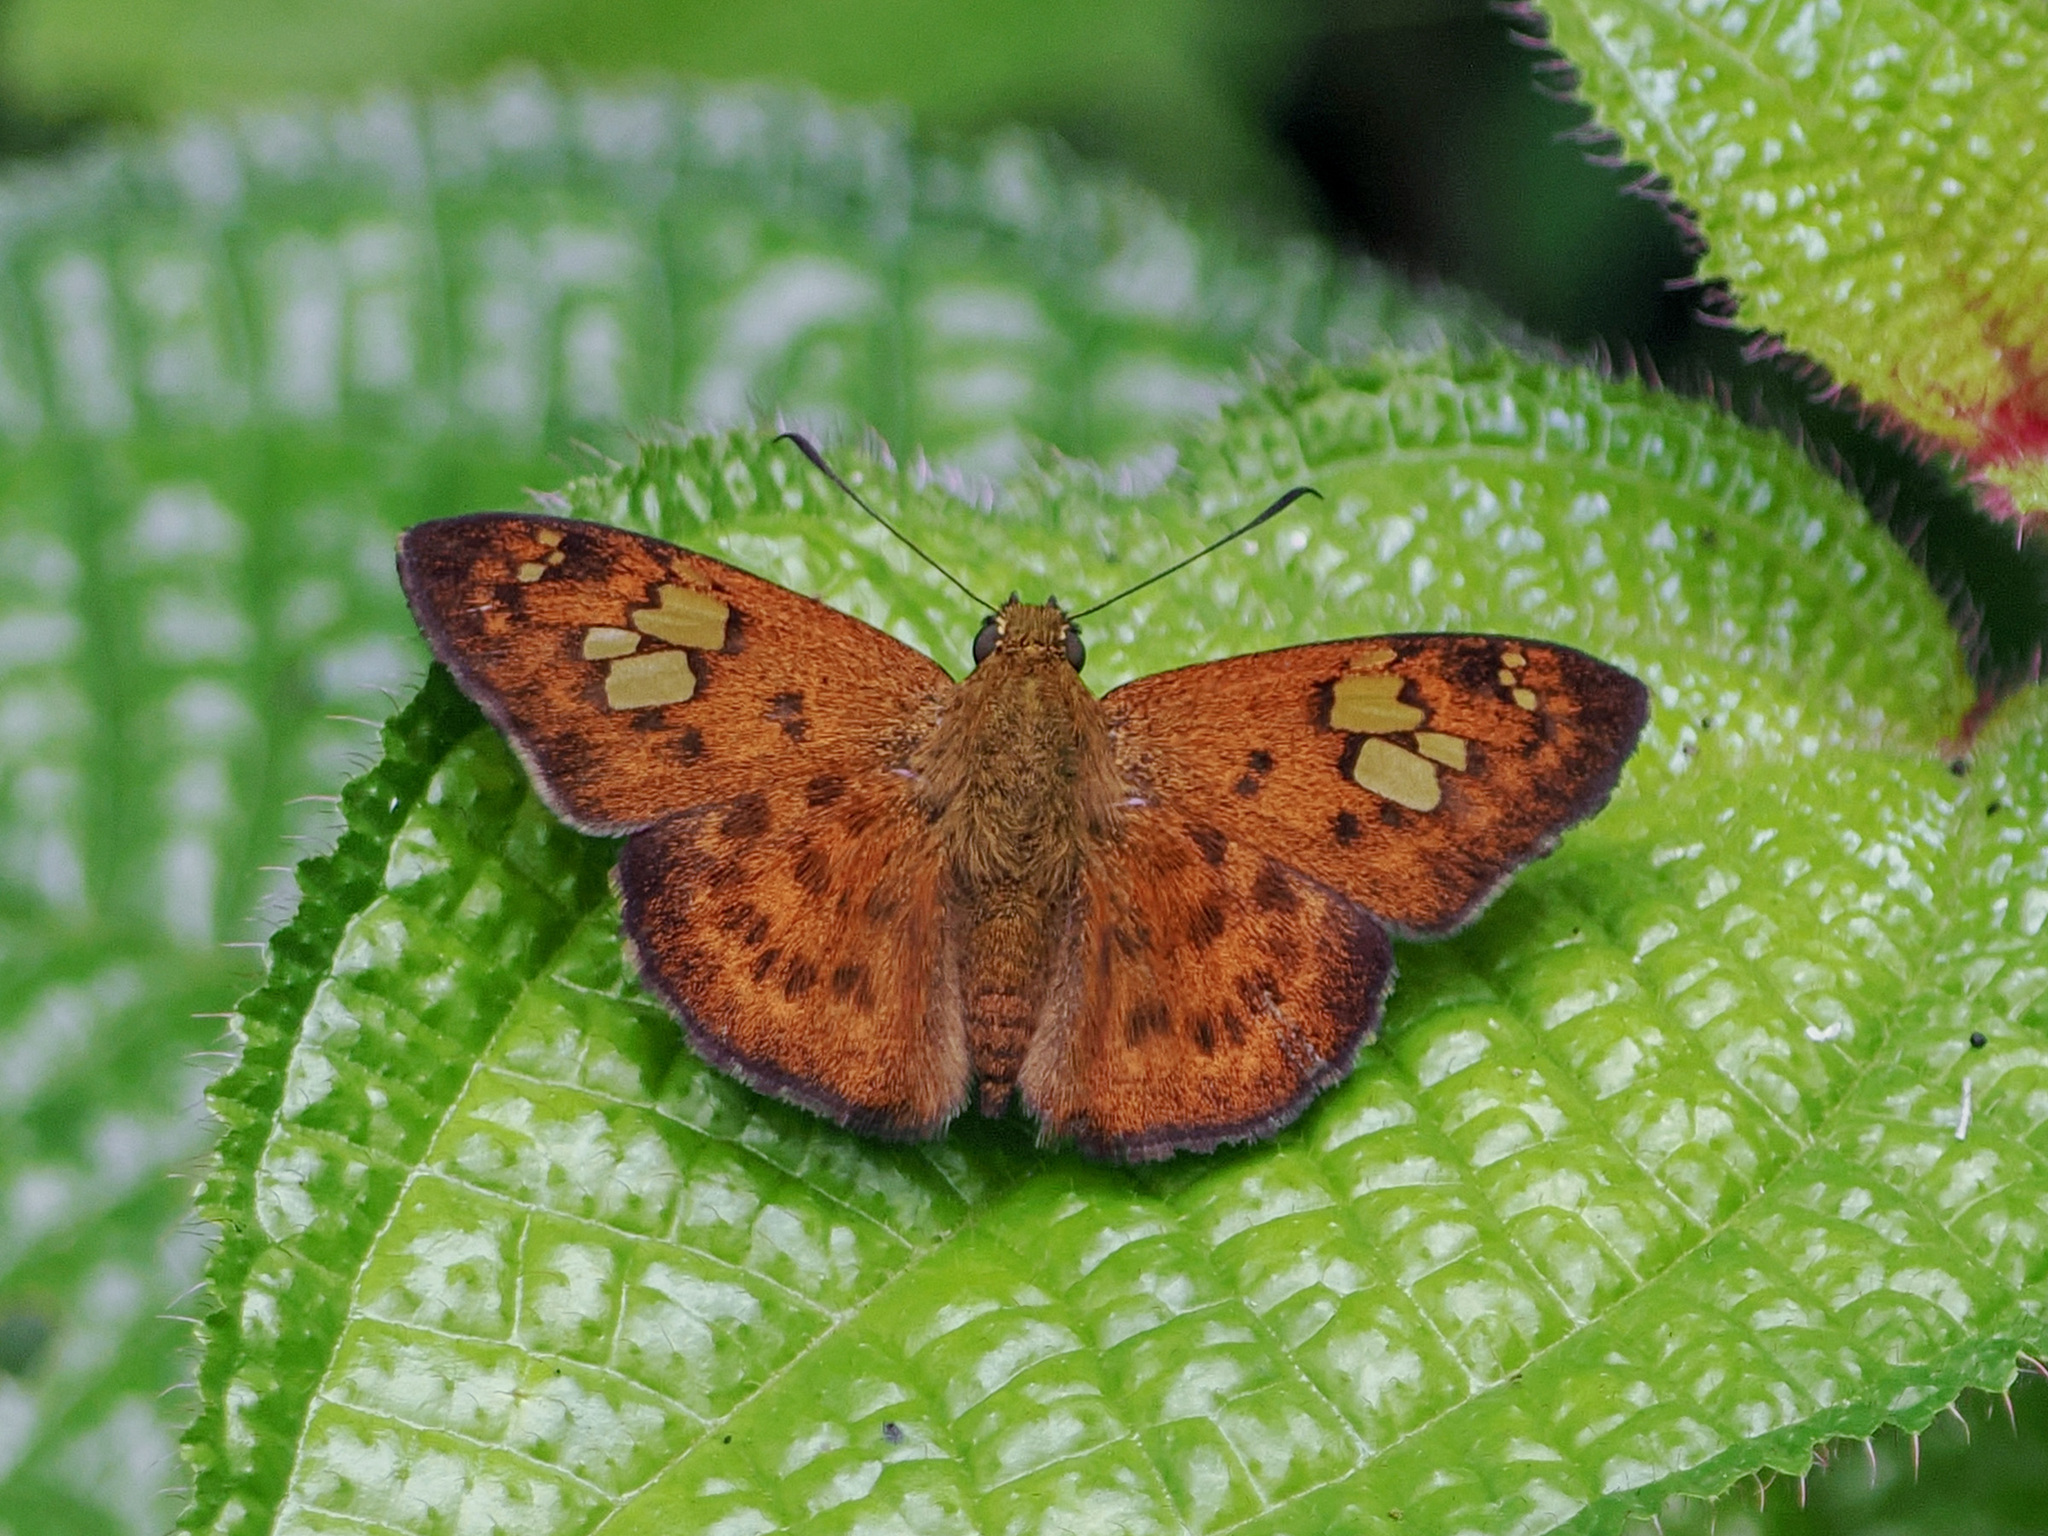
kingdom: Animalia
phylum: Arthropoda
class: Insecta
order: Lepidoptera
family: Hesperiidae
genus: Pseudocoladenia
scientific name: Pseudocoladenia dan
